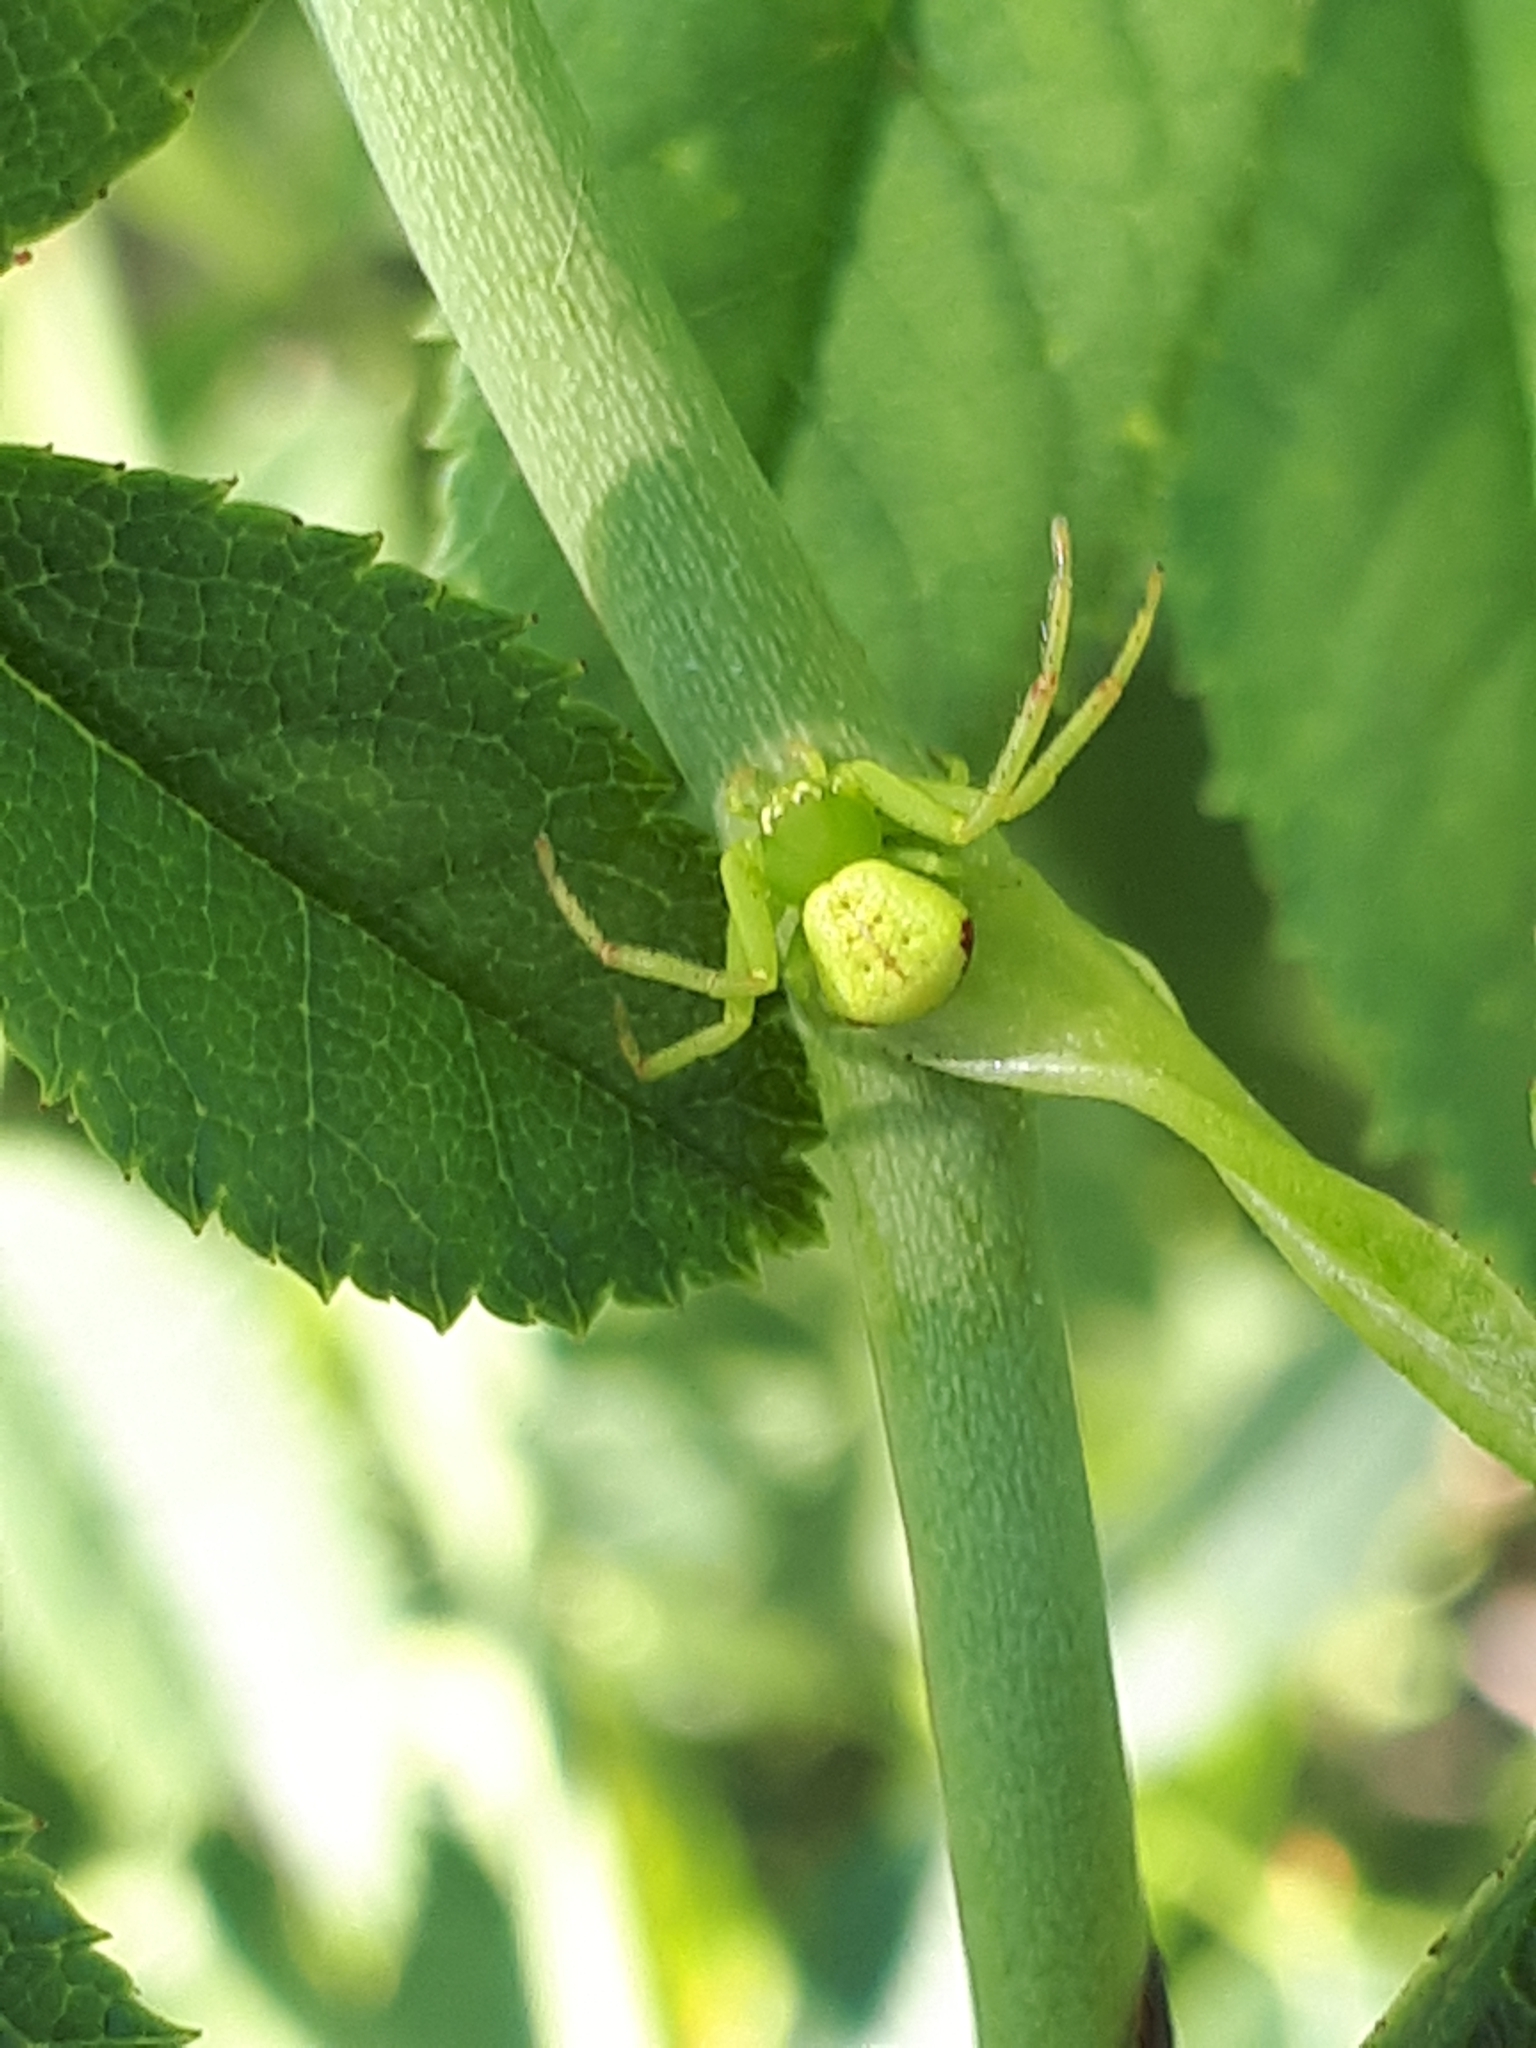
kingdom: Animalia
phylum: Arthropoda
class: Arachnida
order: Araneae
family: Thomisidae
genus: Ebrechtella
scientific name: Ebrechtella tricuspidata
